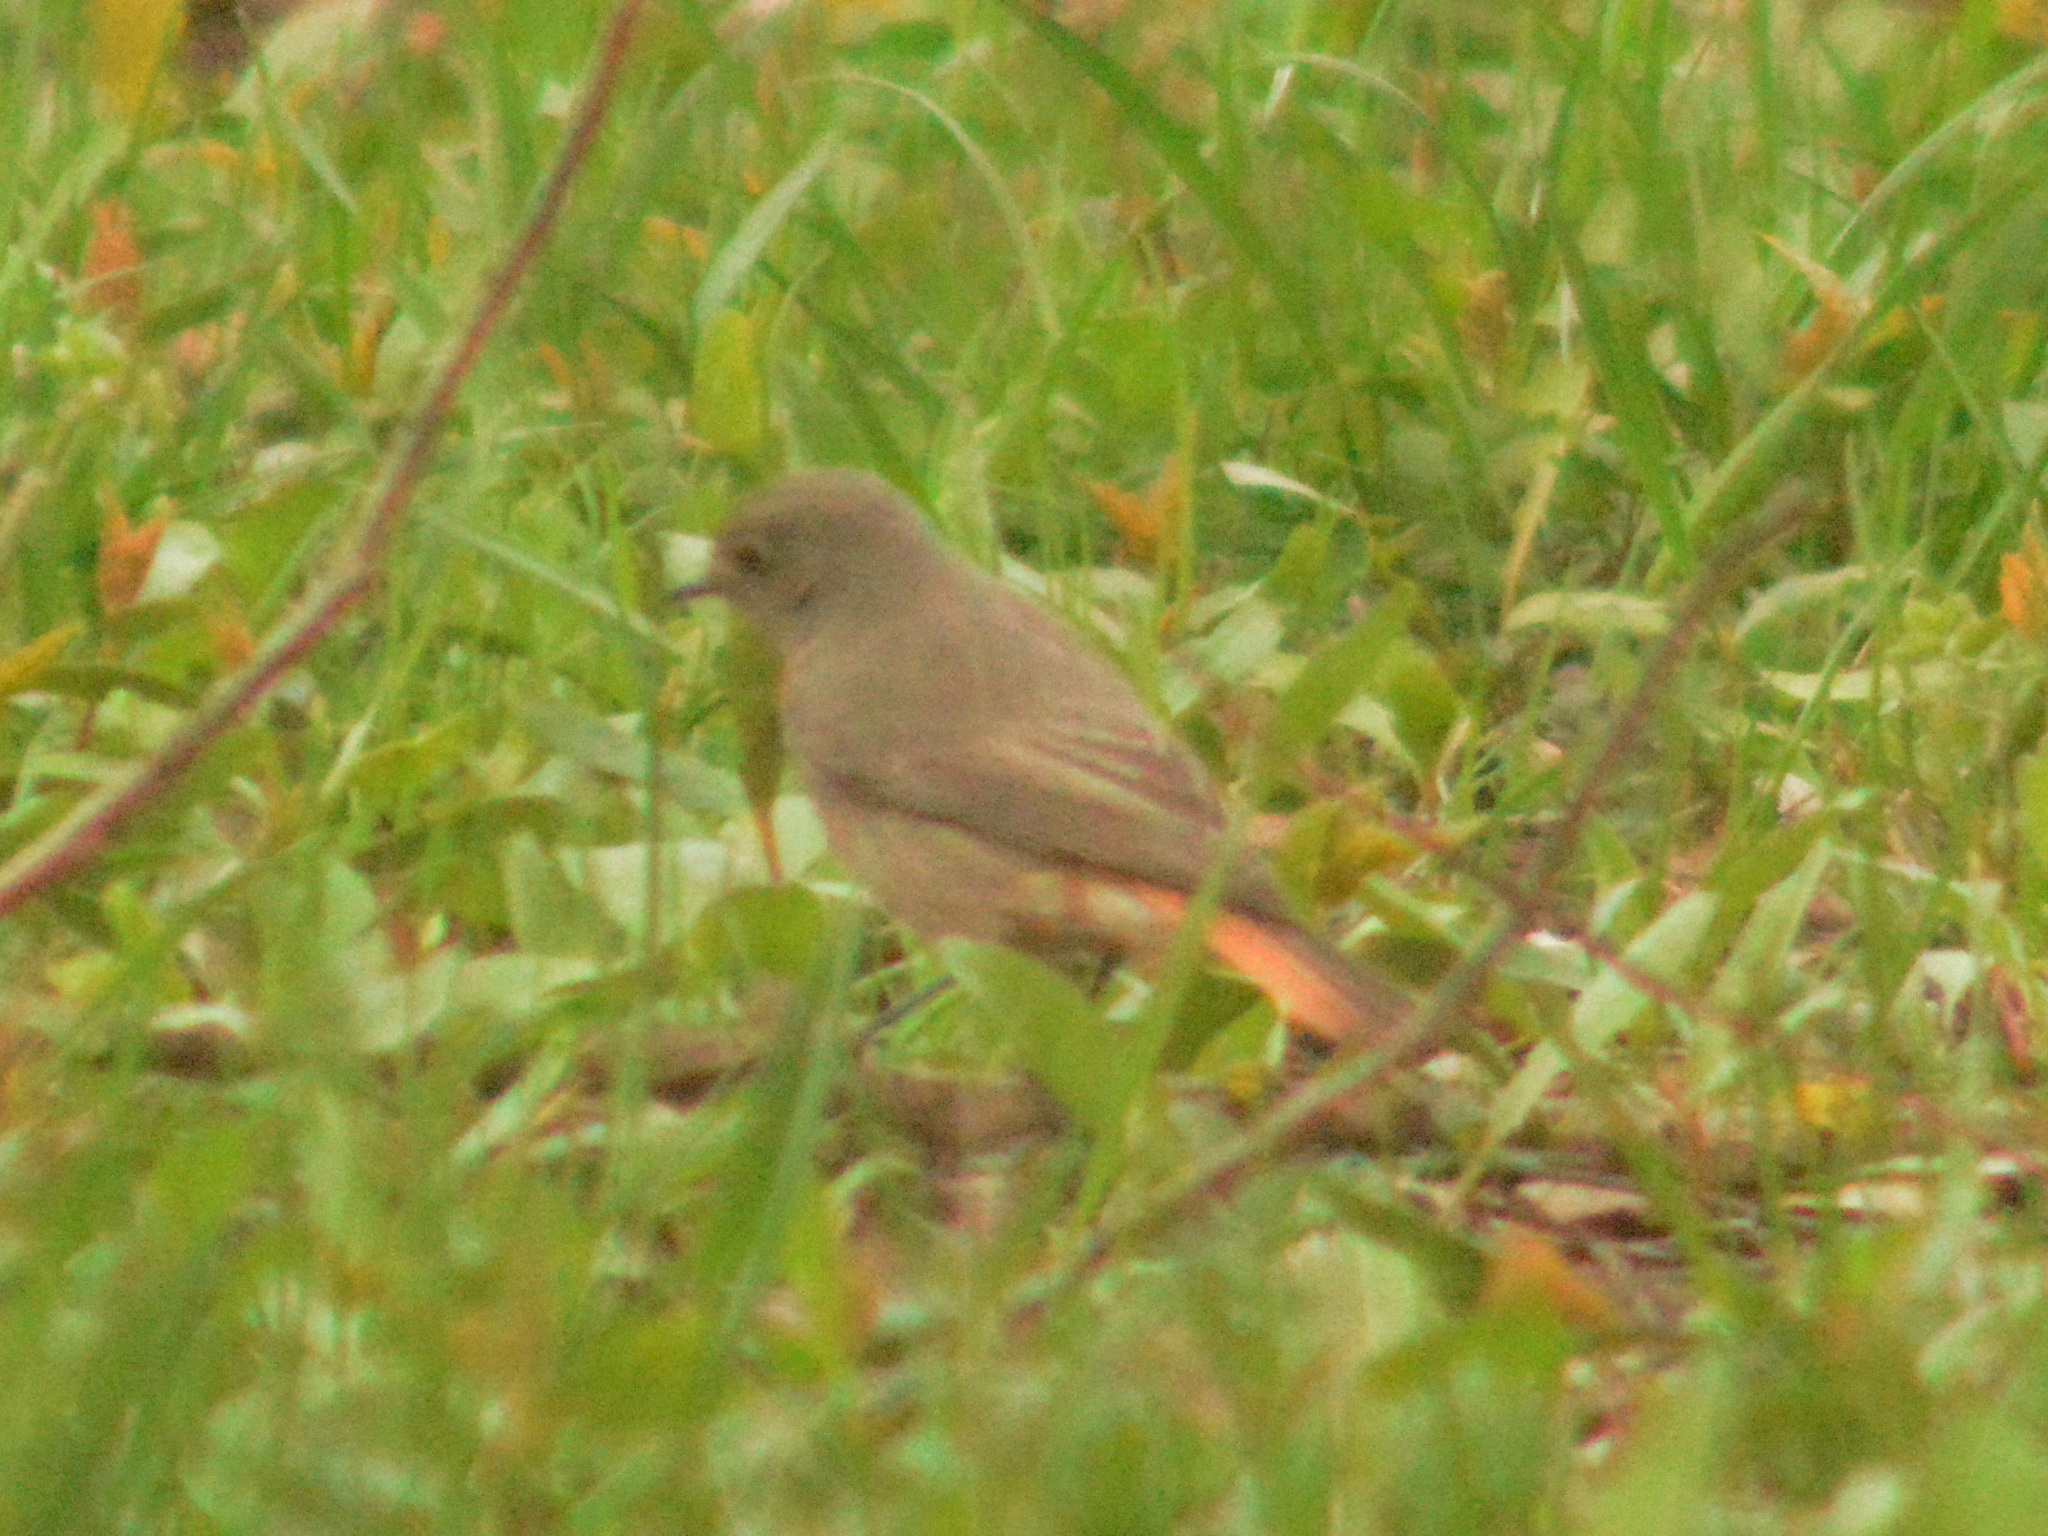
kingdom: Animalia
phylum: Chordata
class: Aves
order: Passeriformes
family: Muscicapidae
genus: Phoenicurus
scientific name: Phoenicurus ochruros
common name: Black redstart
